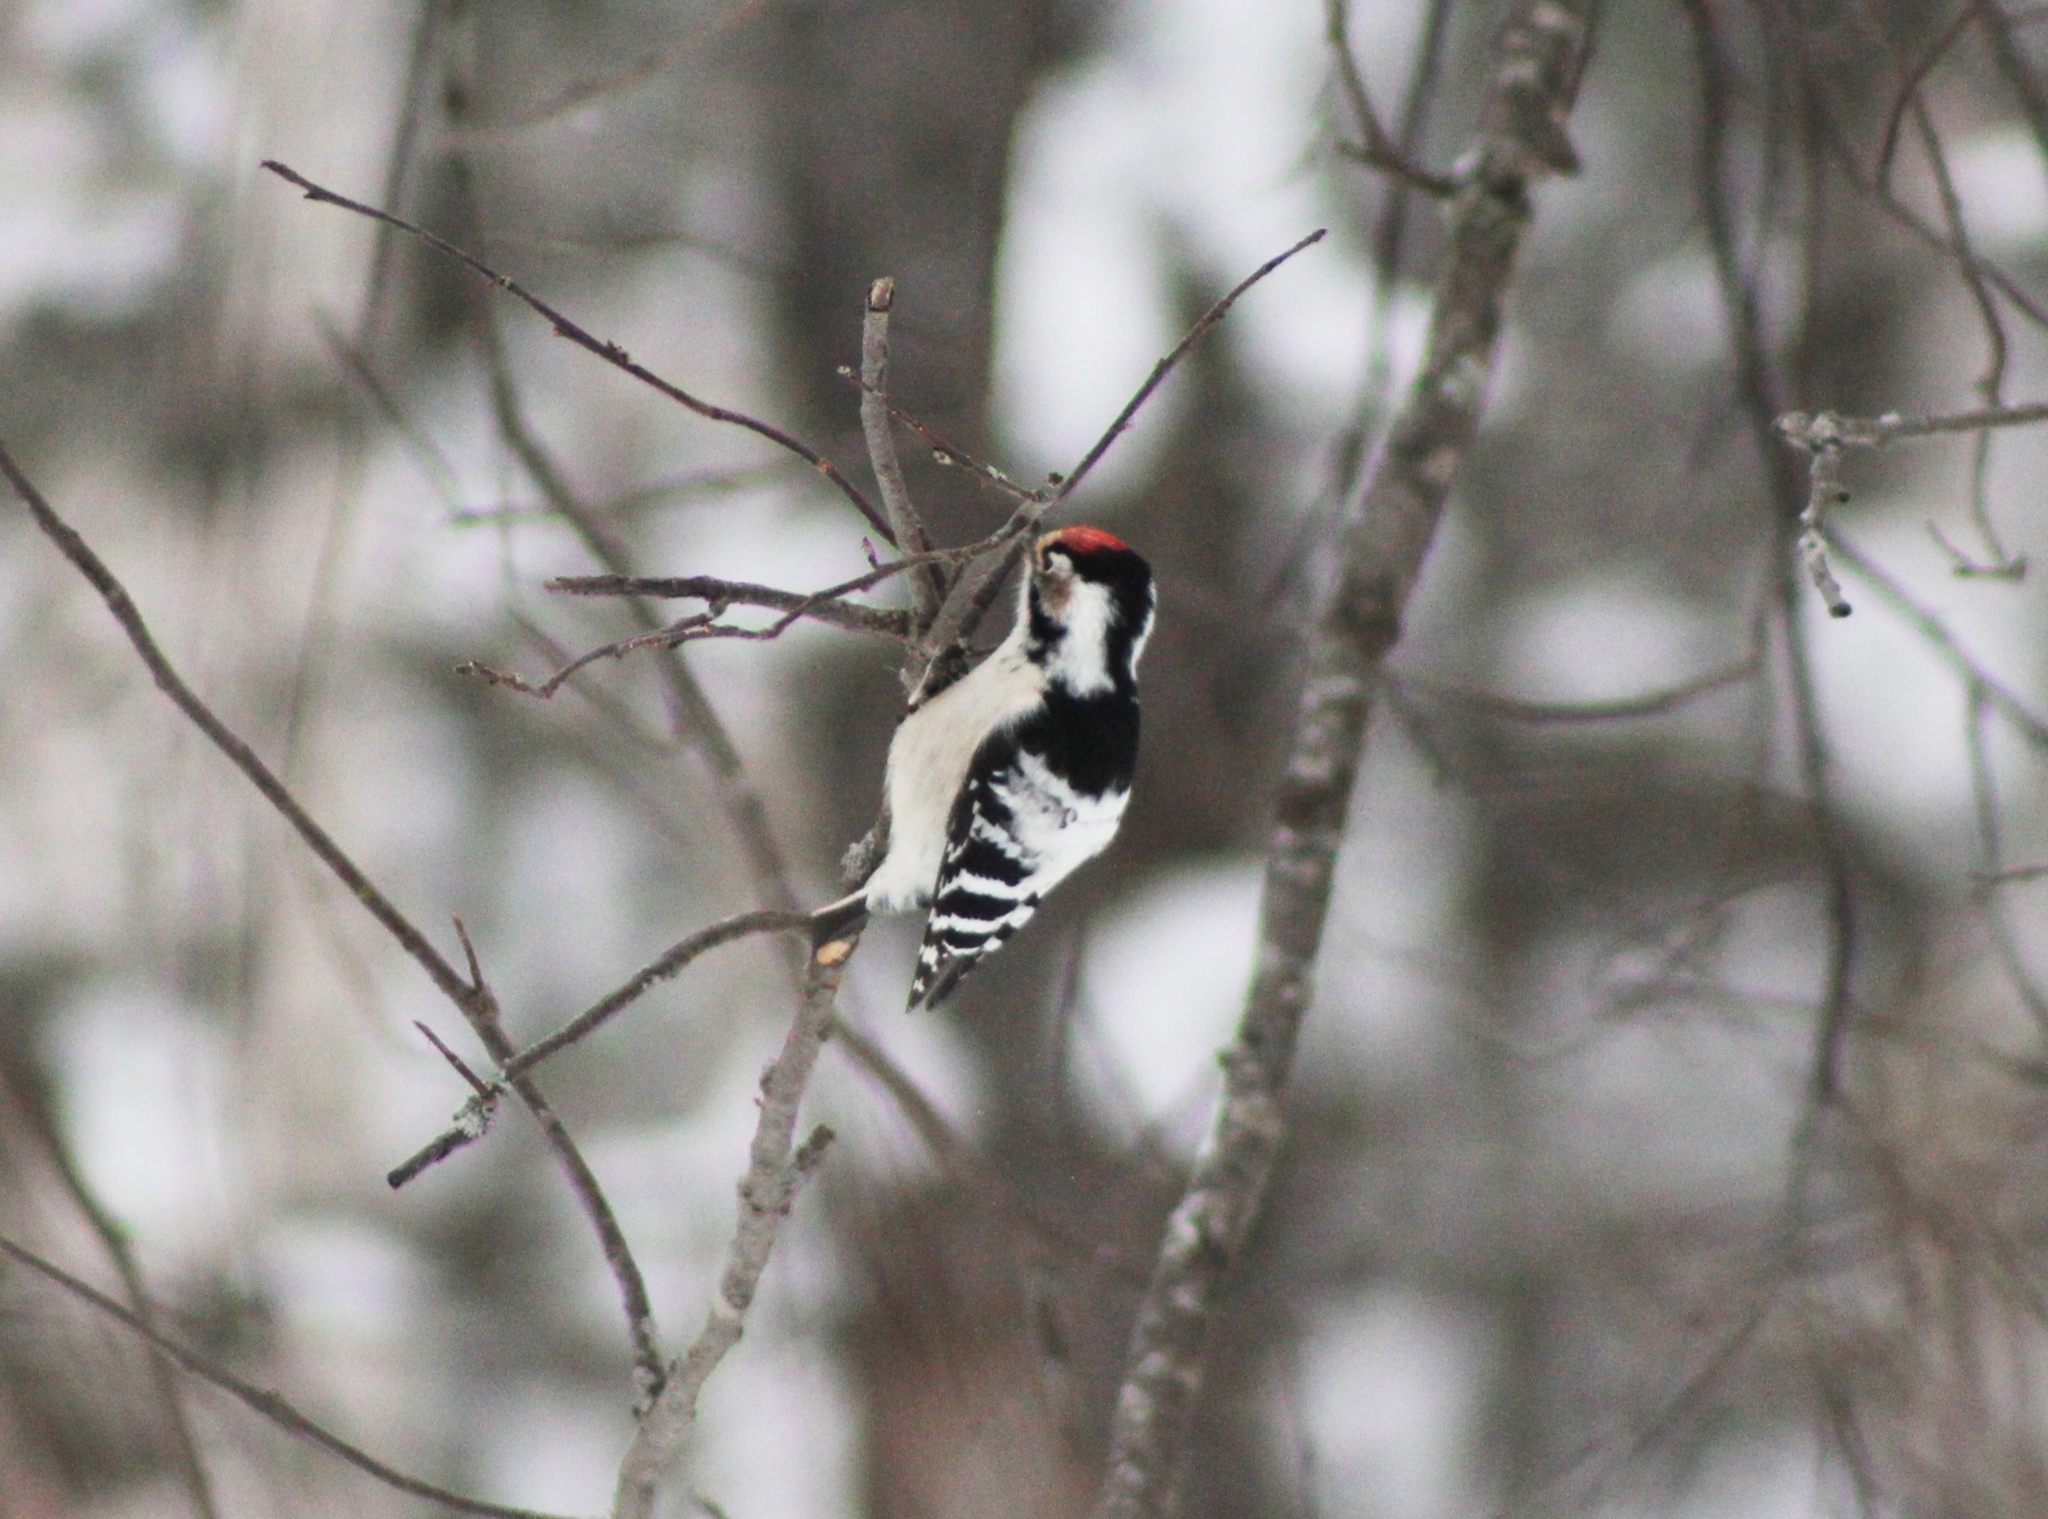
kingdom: Animalia
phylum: Chordata
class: Aves
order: Piciformes
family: Picidae
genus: Dryobates
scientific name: Dryobates minor
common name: Lesser spotted woodpecker
